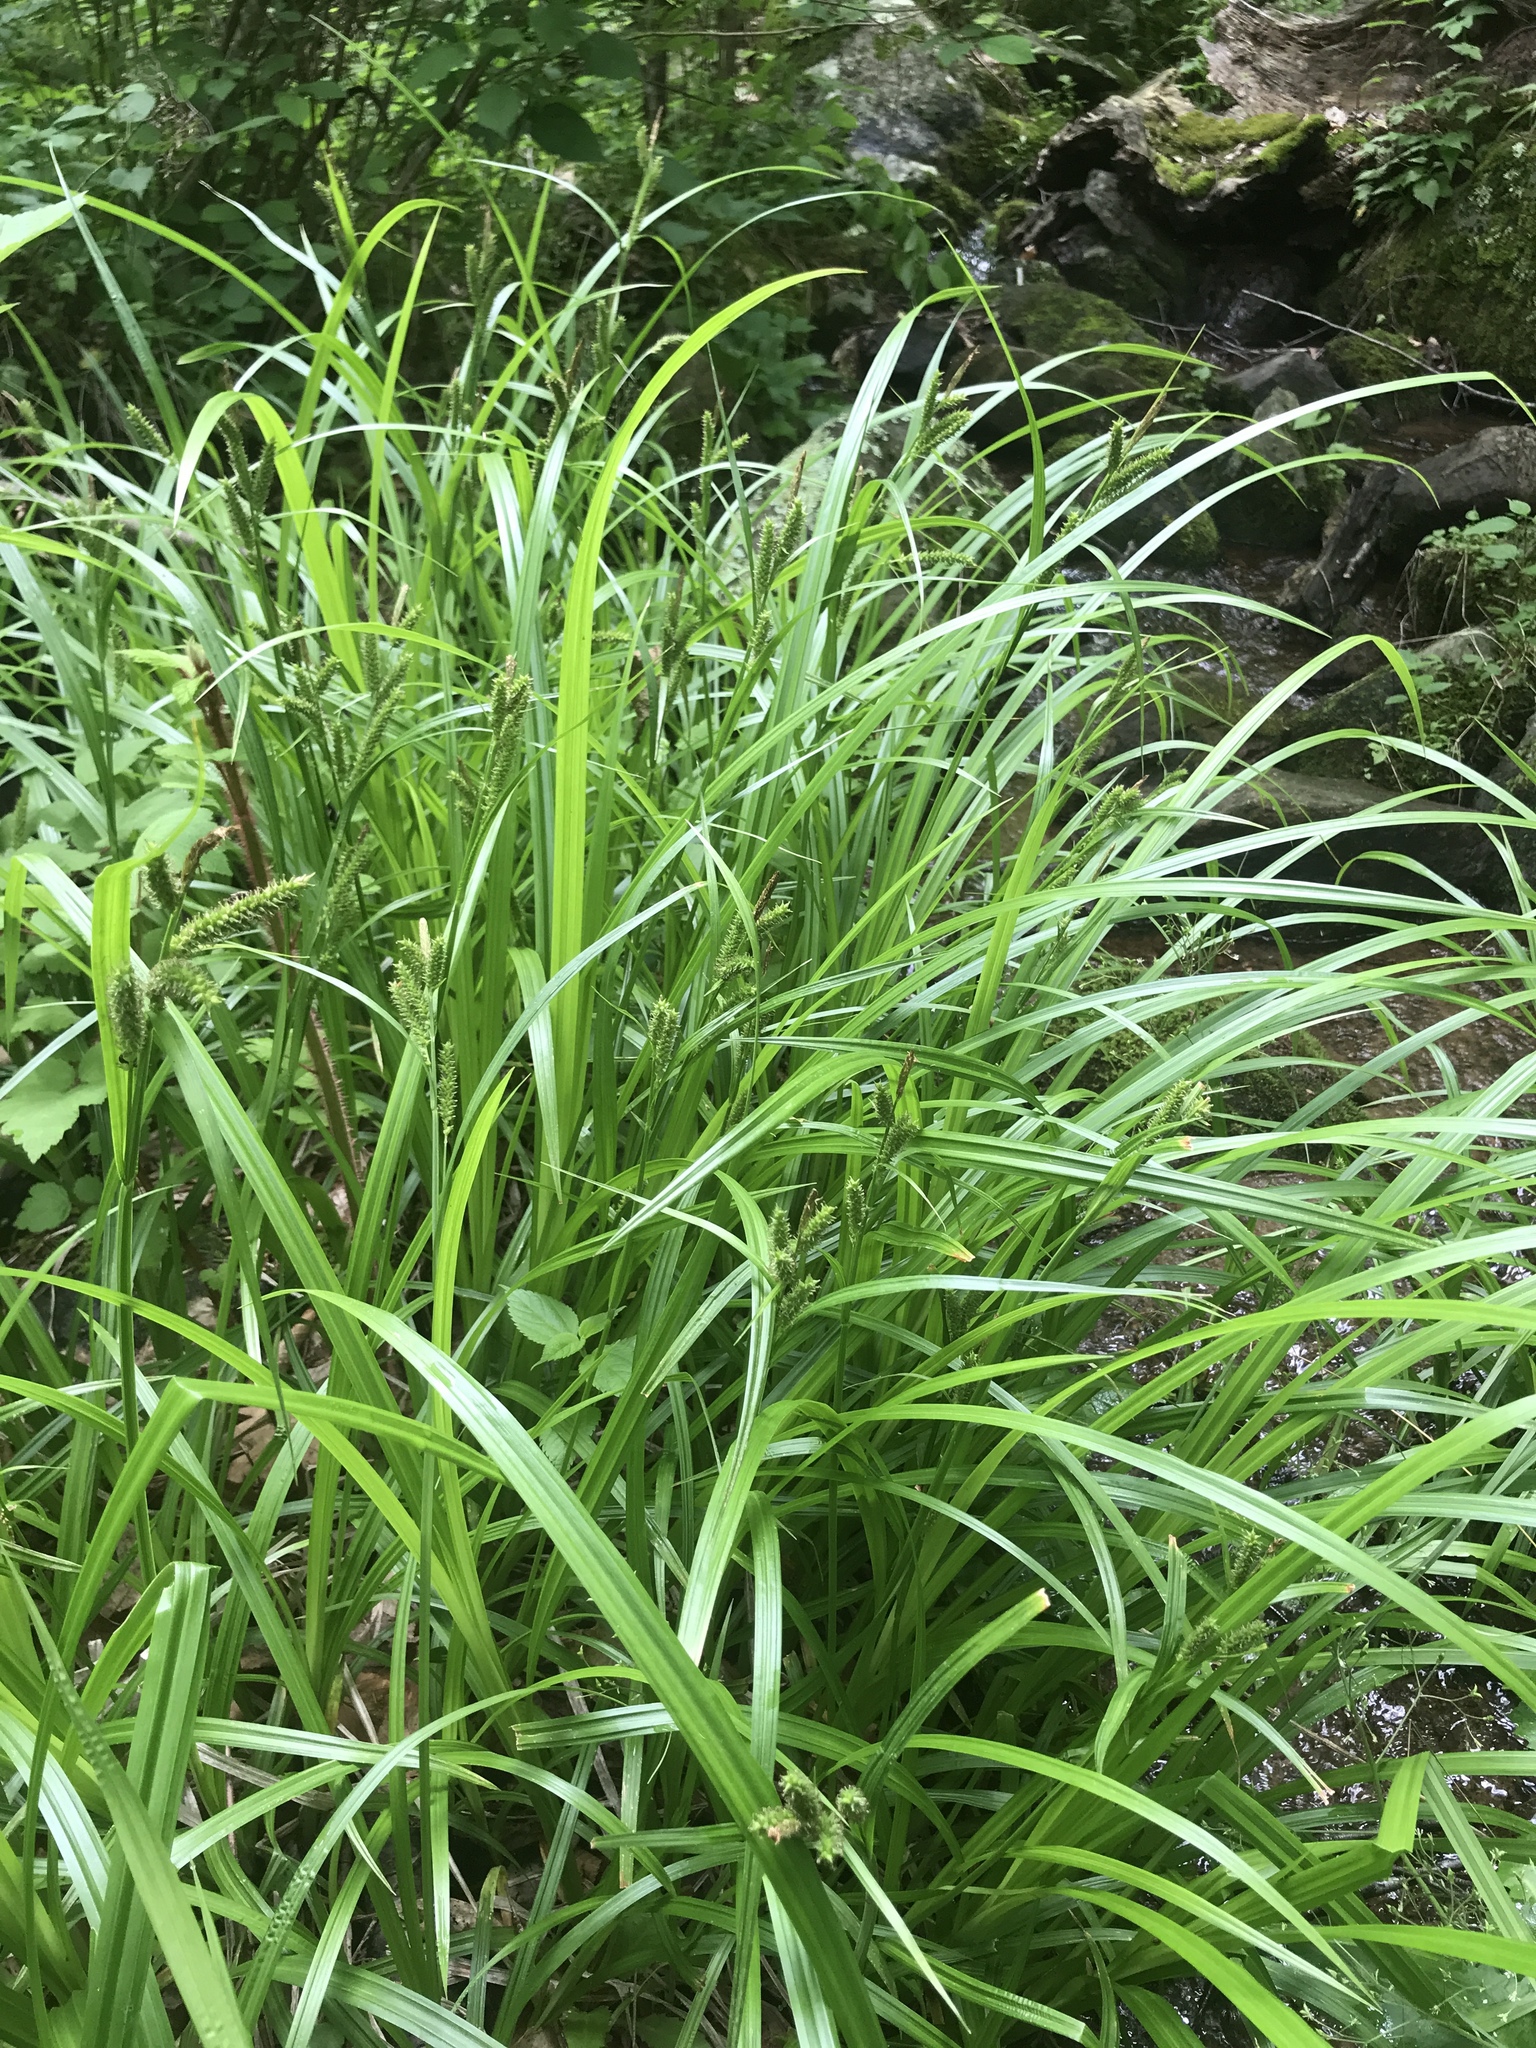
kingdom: Plantae
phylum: Tracheophyta
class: Liliopsida
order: Poales
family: Cyperaceae
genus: Carex
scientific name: Carex scabrata
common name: Eastern rough sedge
